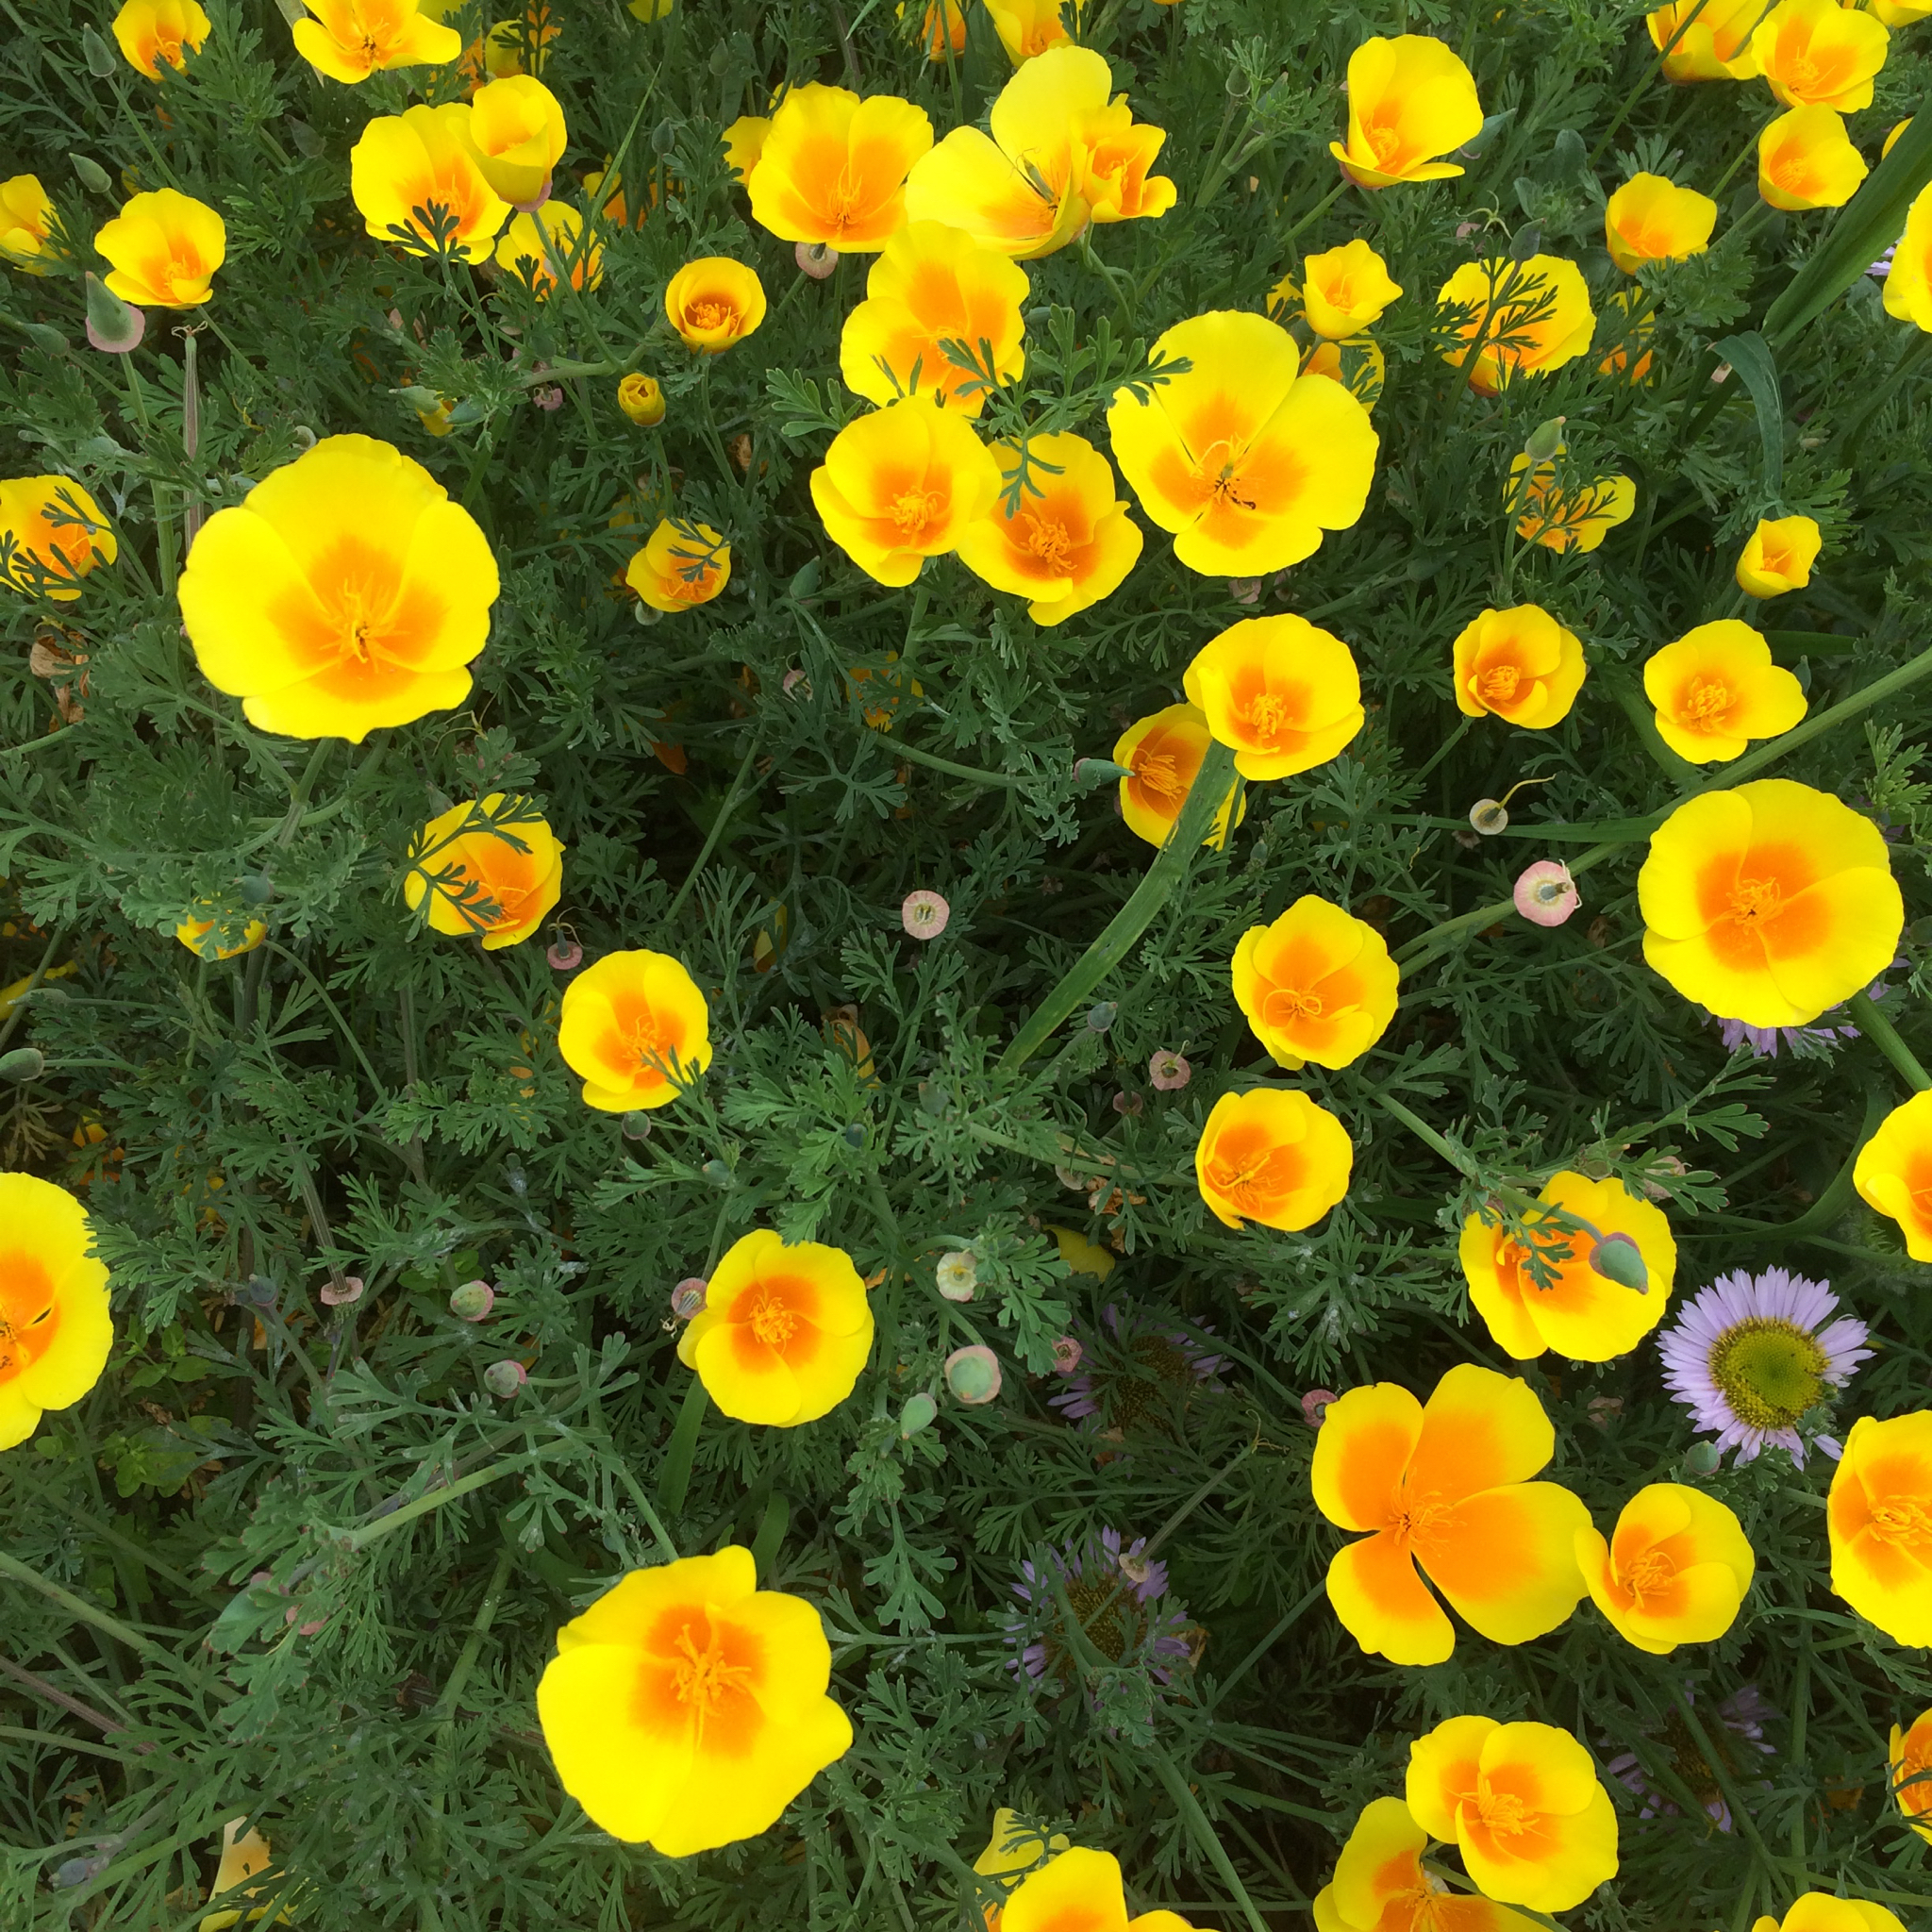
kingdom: Plantae
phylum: Tracheophyta
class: Magnoliopsida
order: Ranunculales
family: Papaveraceae
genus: Eschscholzia
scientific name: Eschscholzia californica
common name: California poppy
